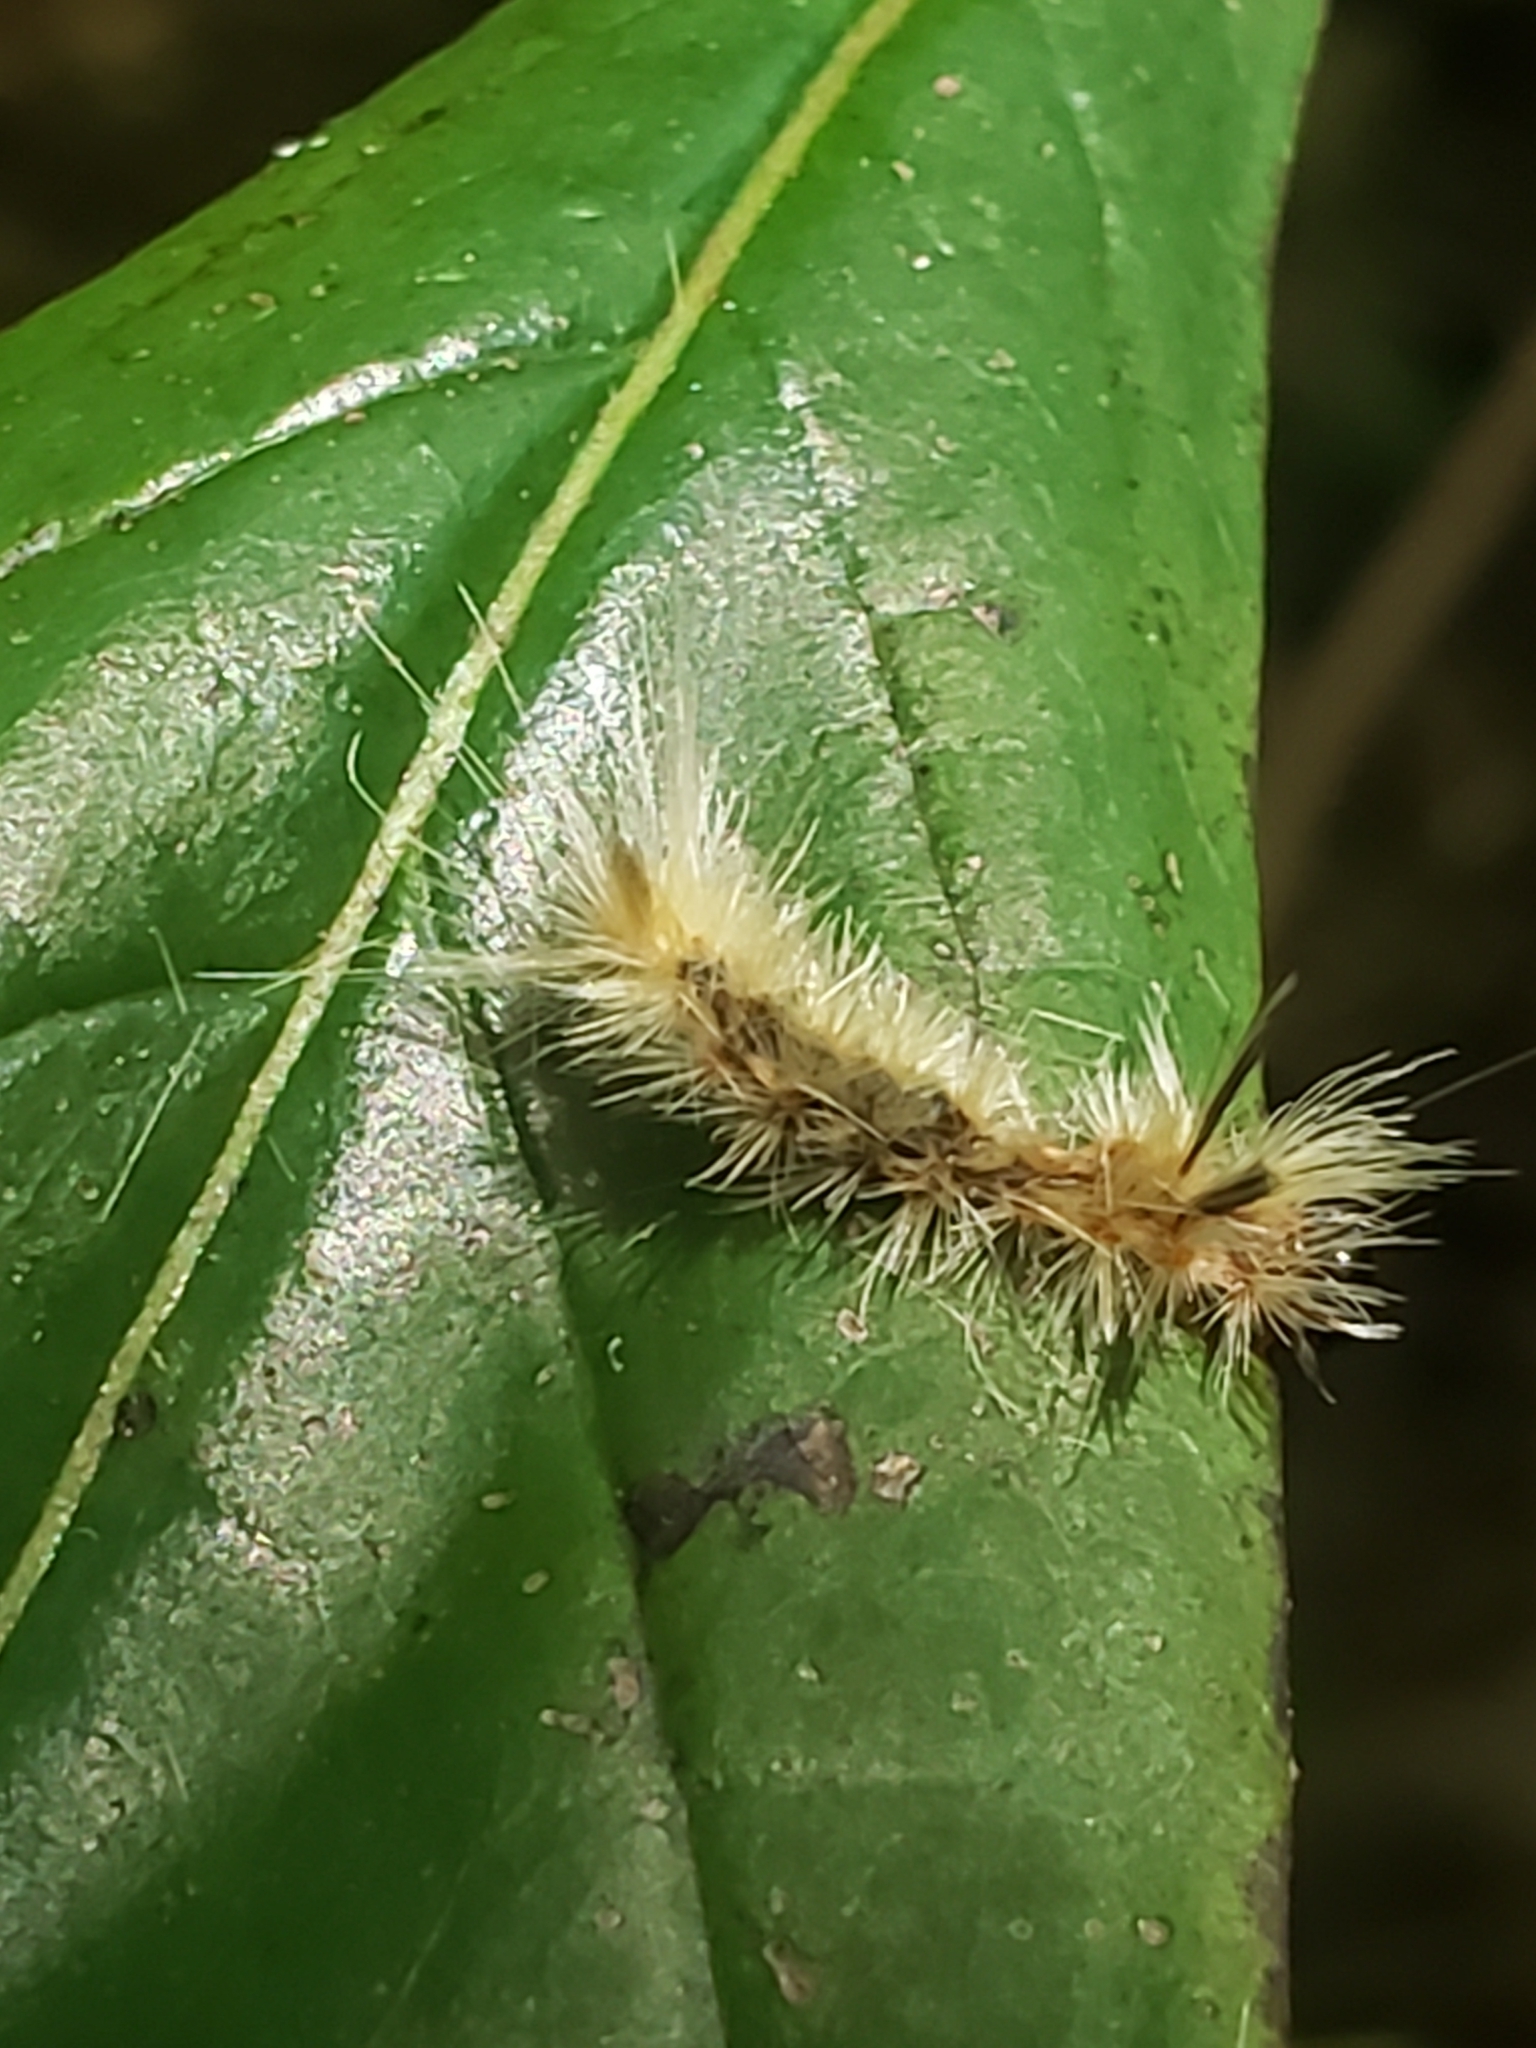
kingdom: Animalia
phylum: Arthropoda
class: Insecta
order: Lepidoptera
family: Erebidae
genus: Halysidota
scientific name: Halysidota tessellaris
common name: Banded tussock moth
